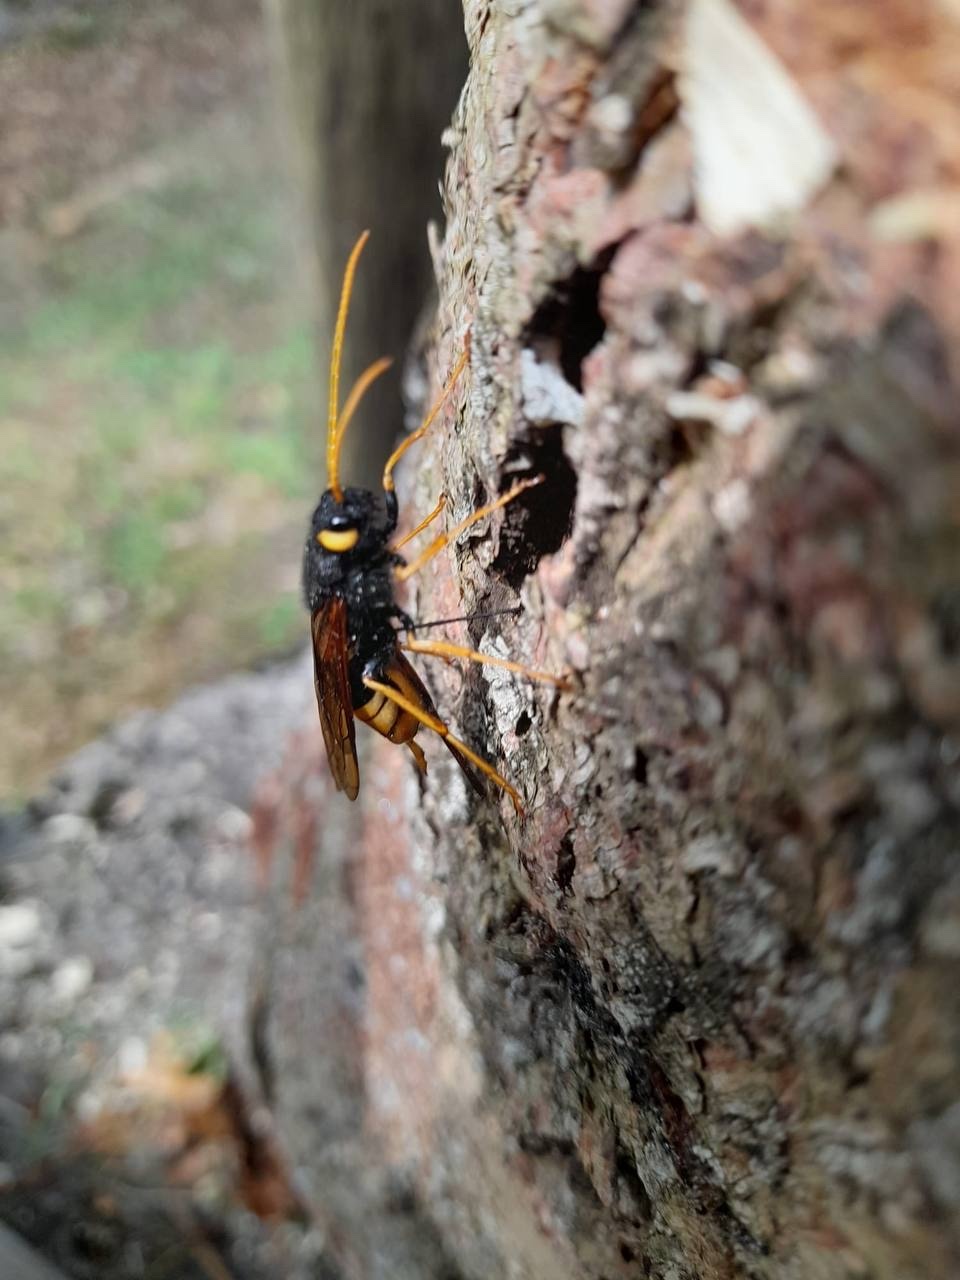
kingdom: Animalia
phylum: Arthropoda
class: Insecta
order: Hymenoptera
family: Siricidae
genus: Urocerus
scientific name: Urocerus gigas
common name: Giant woodwasp
